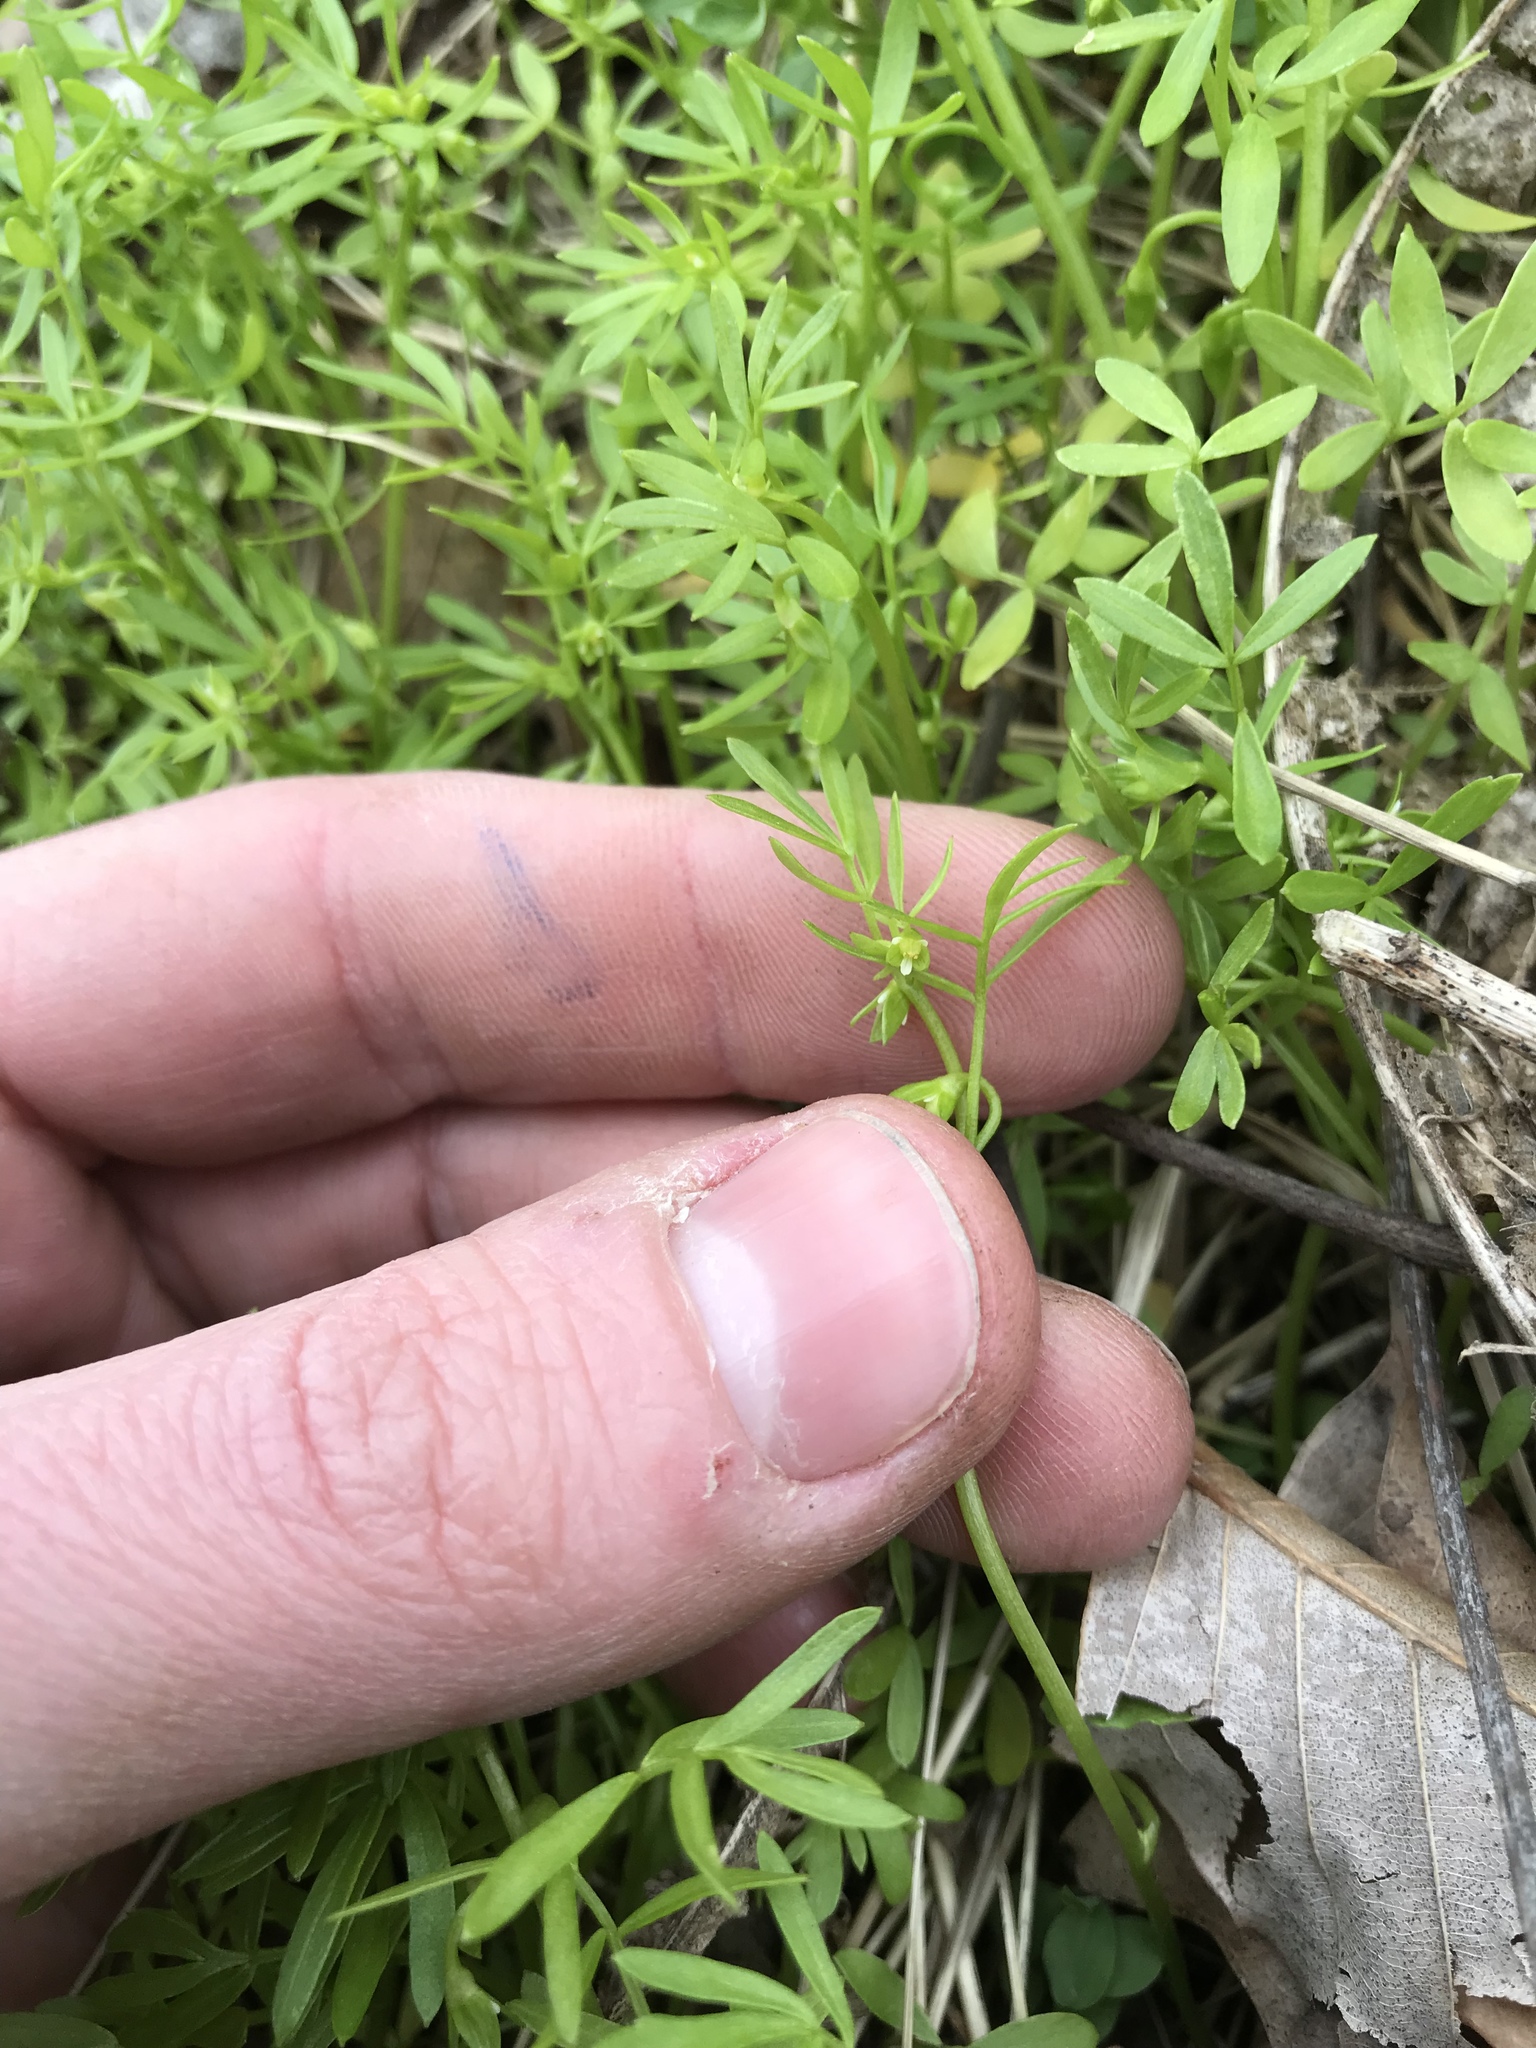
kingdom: Plantae
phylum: Tracheophyta
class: Magnoliopsida
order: Brassicales
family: Limnanthaceae
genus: Floerkea
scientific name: Floerkea proserpinacoides
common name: False mermaid
